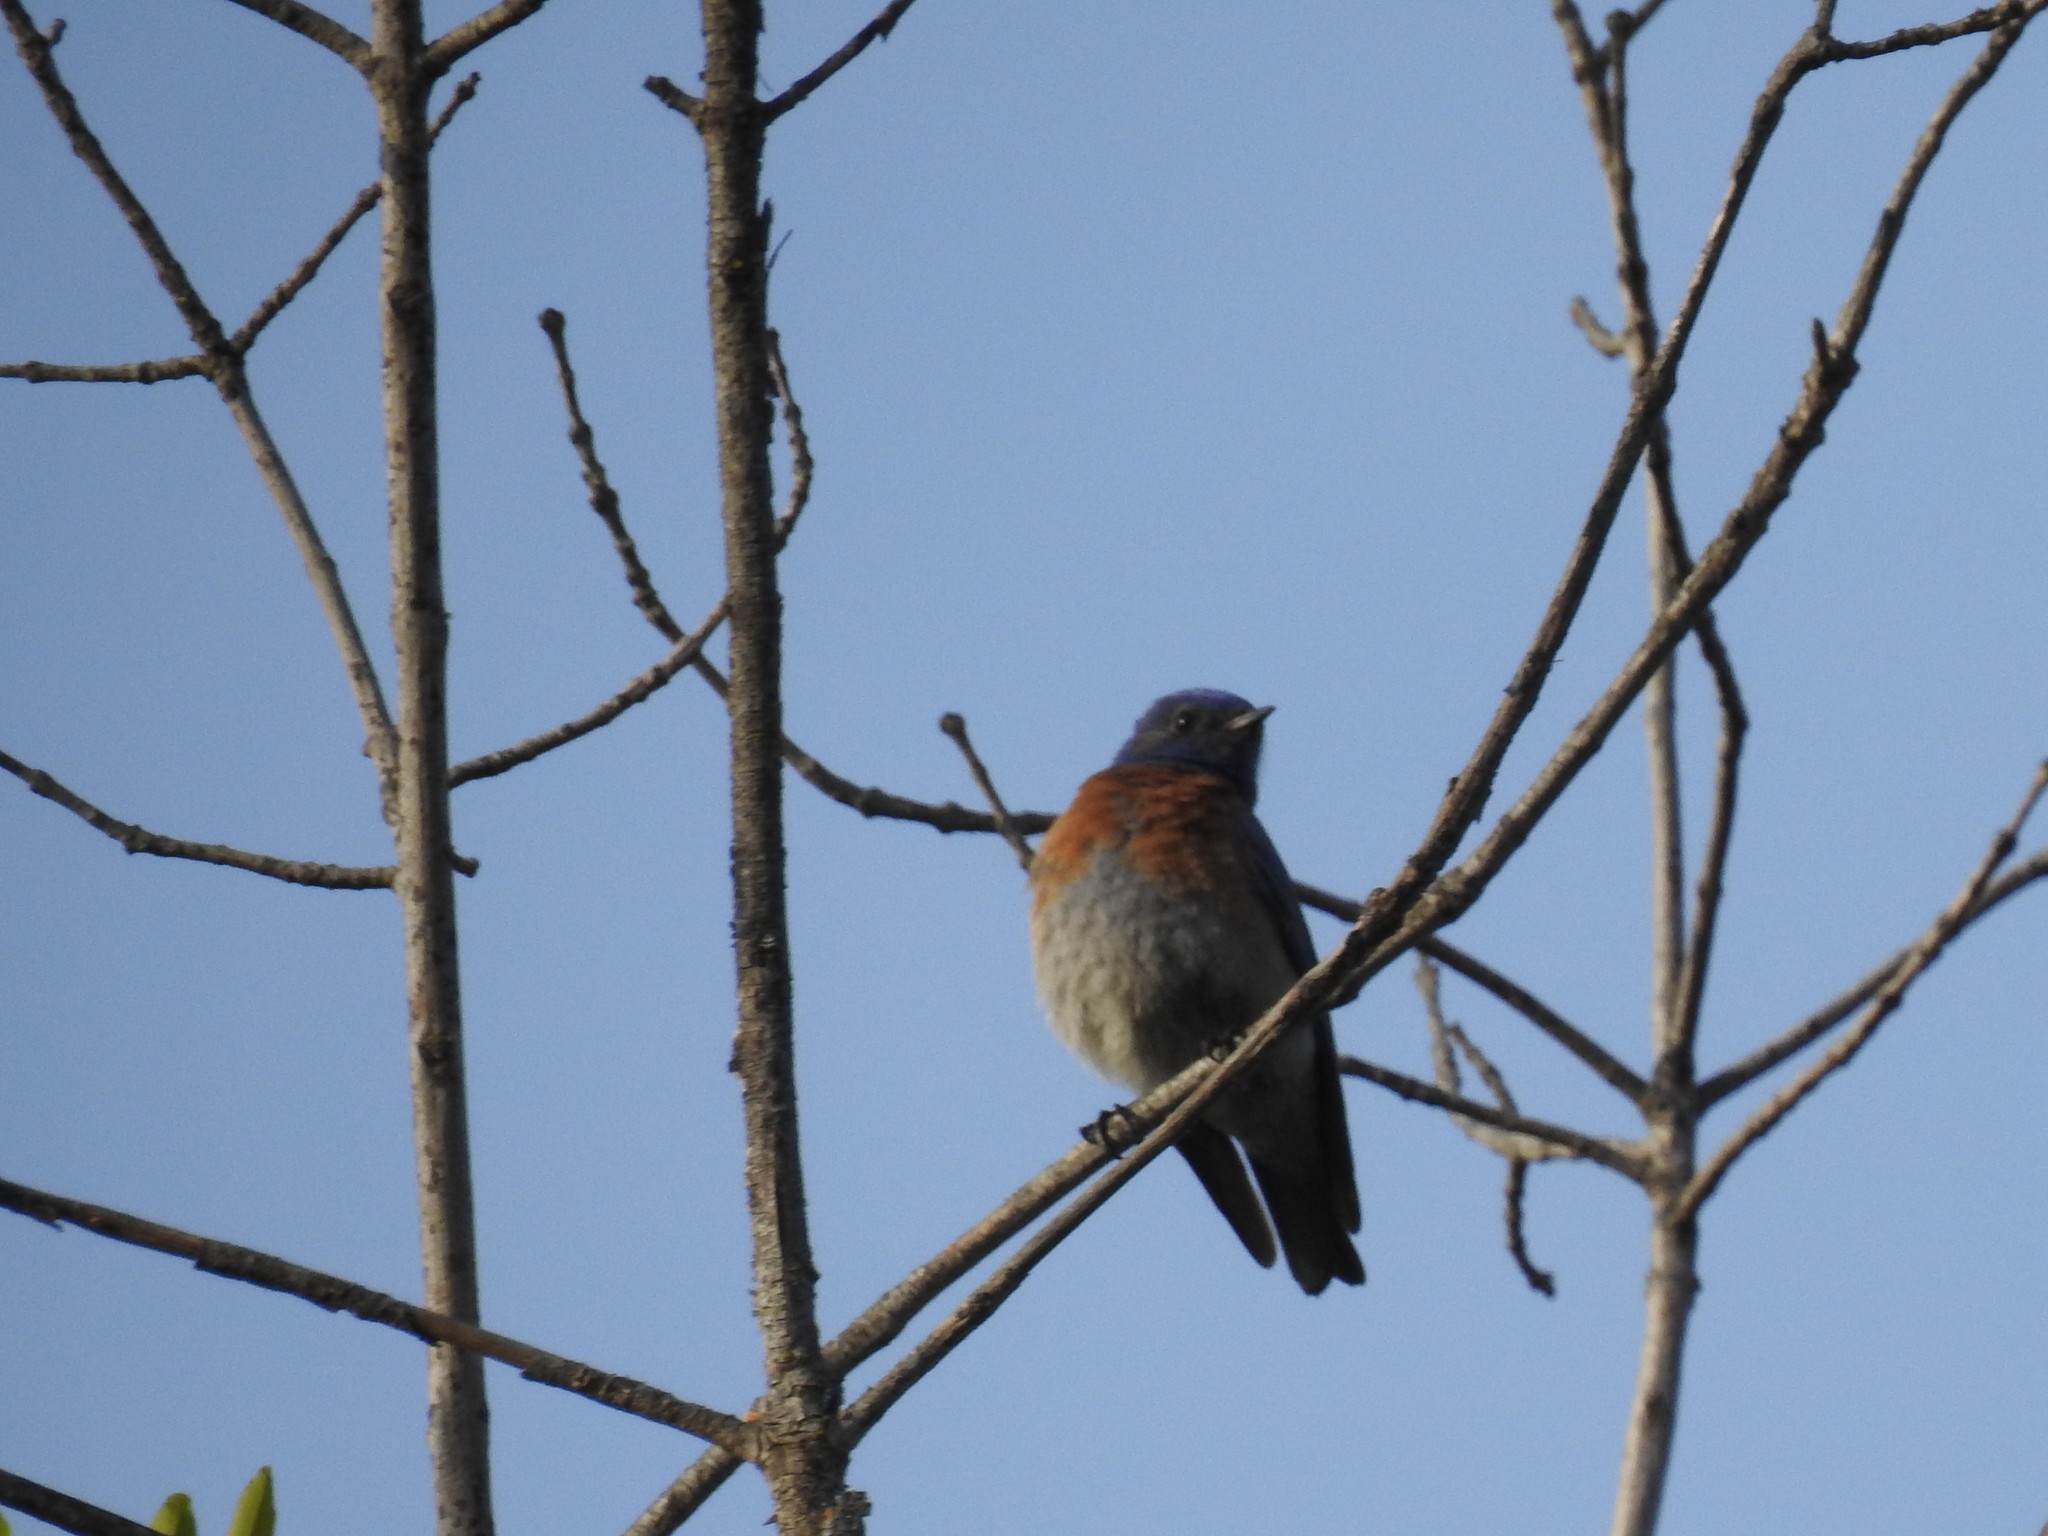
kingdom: Animalia
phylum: Chordata
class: Aves
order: Passeriformes
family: Turdidae
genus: Sialia
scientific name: Sialia mexicana
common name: Western bluebird
